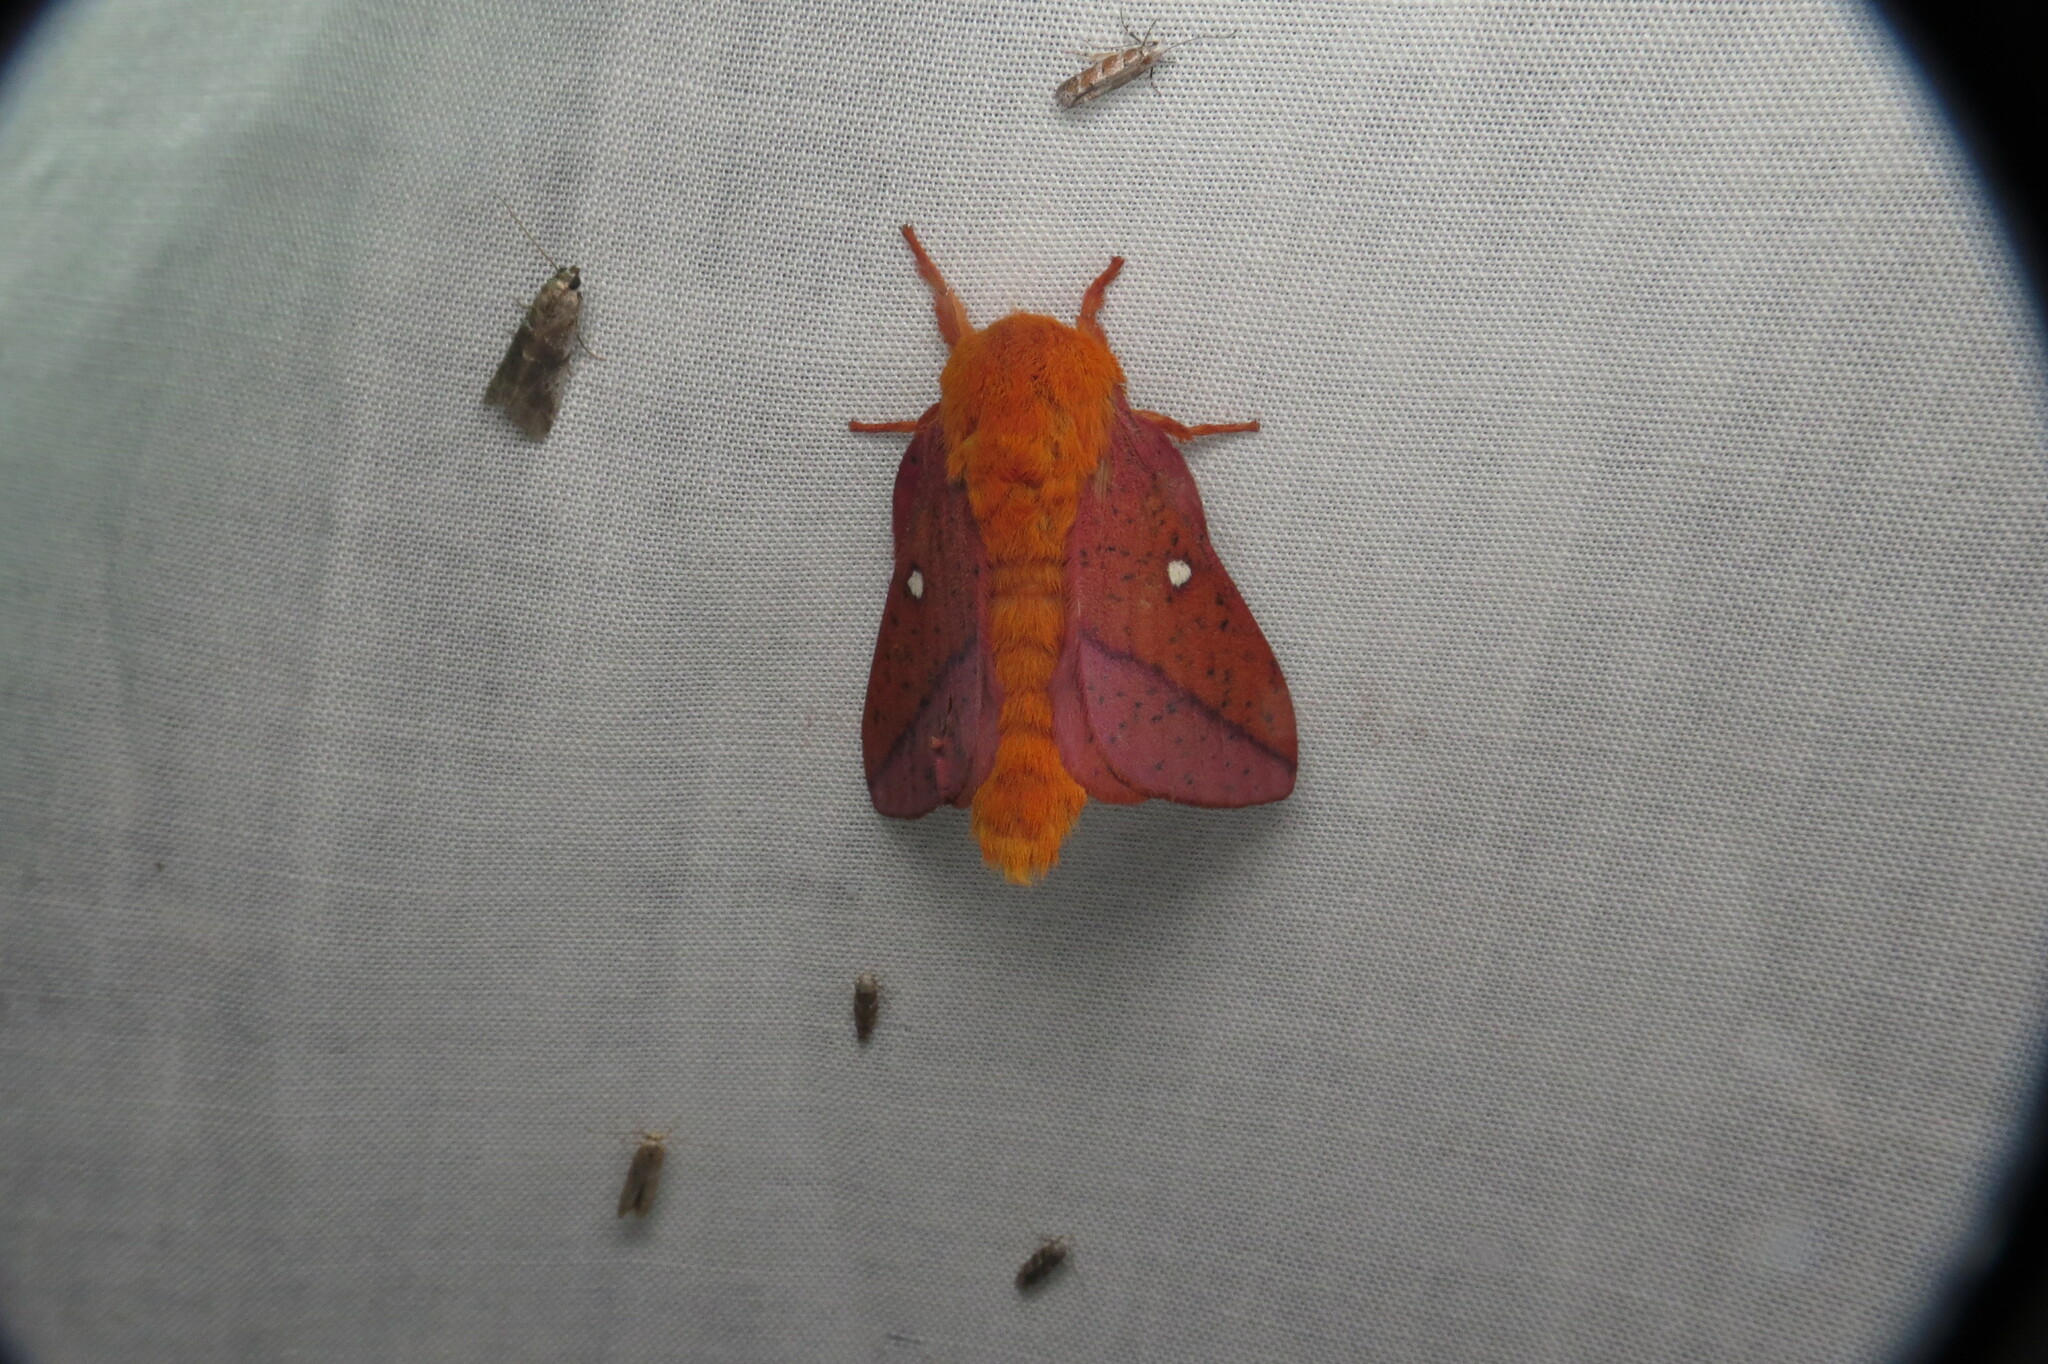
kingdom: Animalia
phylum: Arthropoda
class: Insecta
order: Lepidoptera
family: Saturniidae
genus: Anisota
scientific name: Anisota stigma
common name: Spiny oakworm moth
